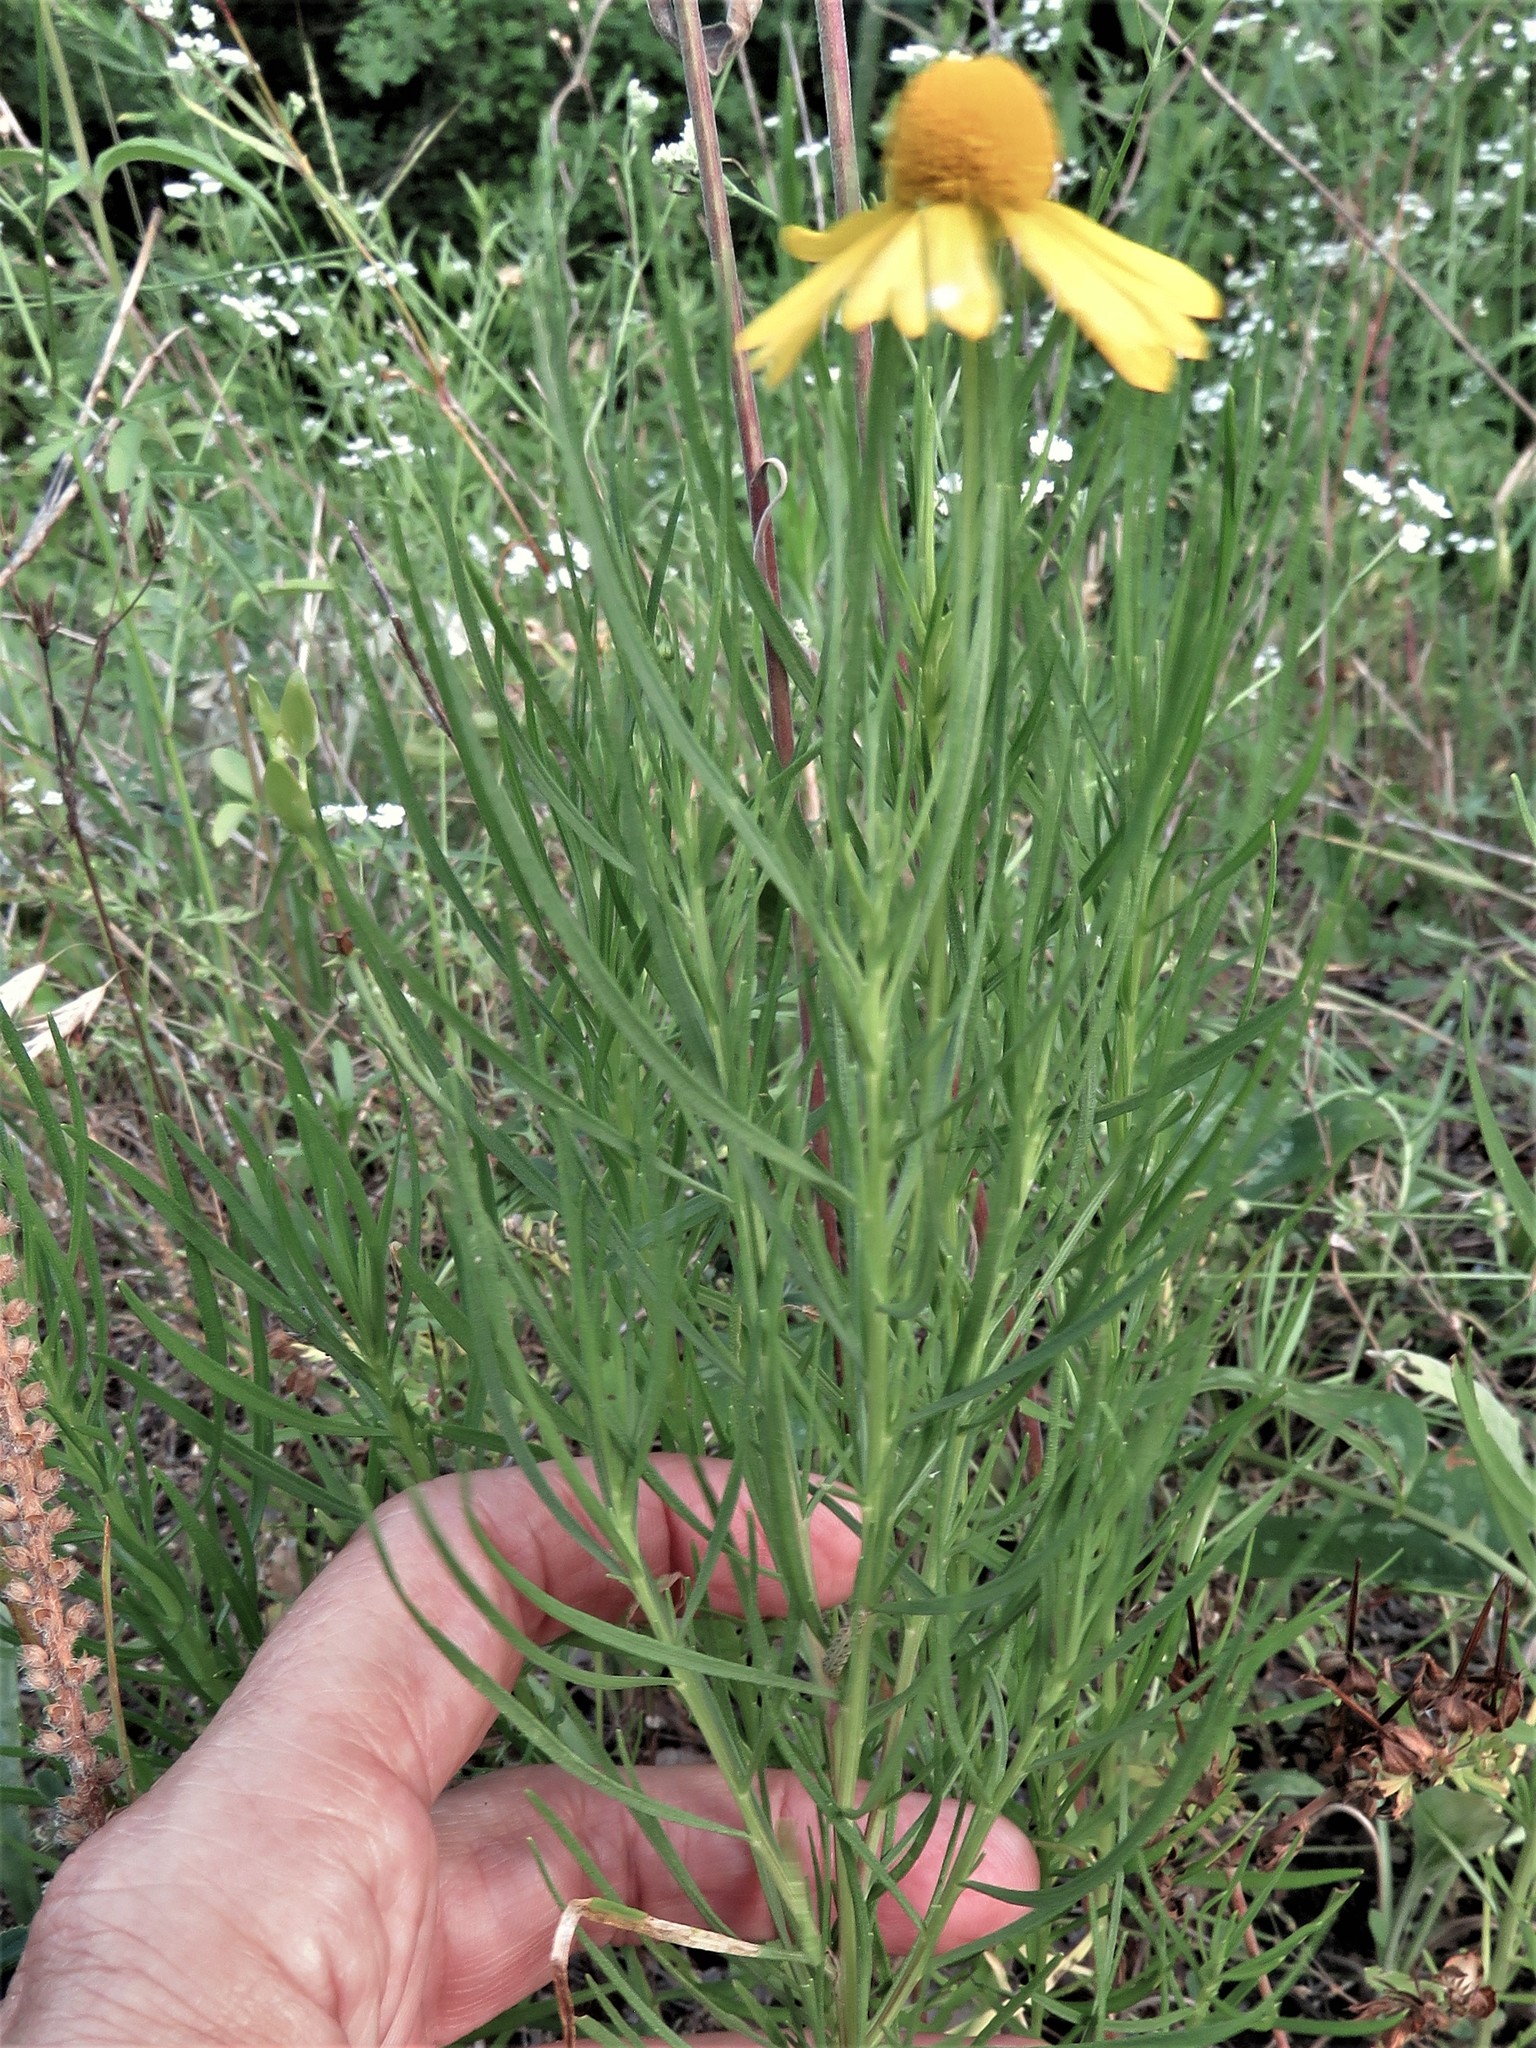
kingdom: Plantae
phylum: Tracheophyta
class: Magnoliopsida
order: Asterales
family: Asteraceae
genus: Helenium
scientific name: Helenium amarum
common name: Bitter sneezeweed
